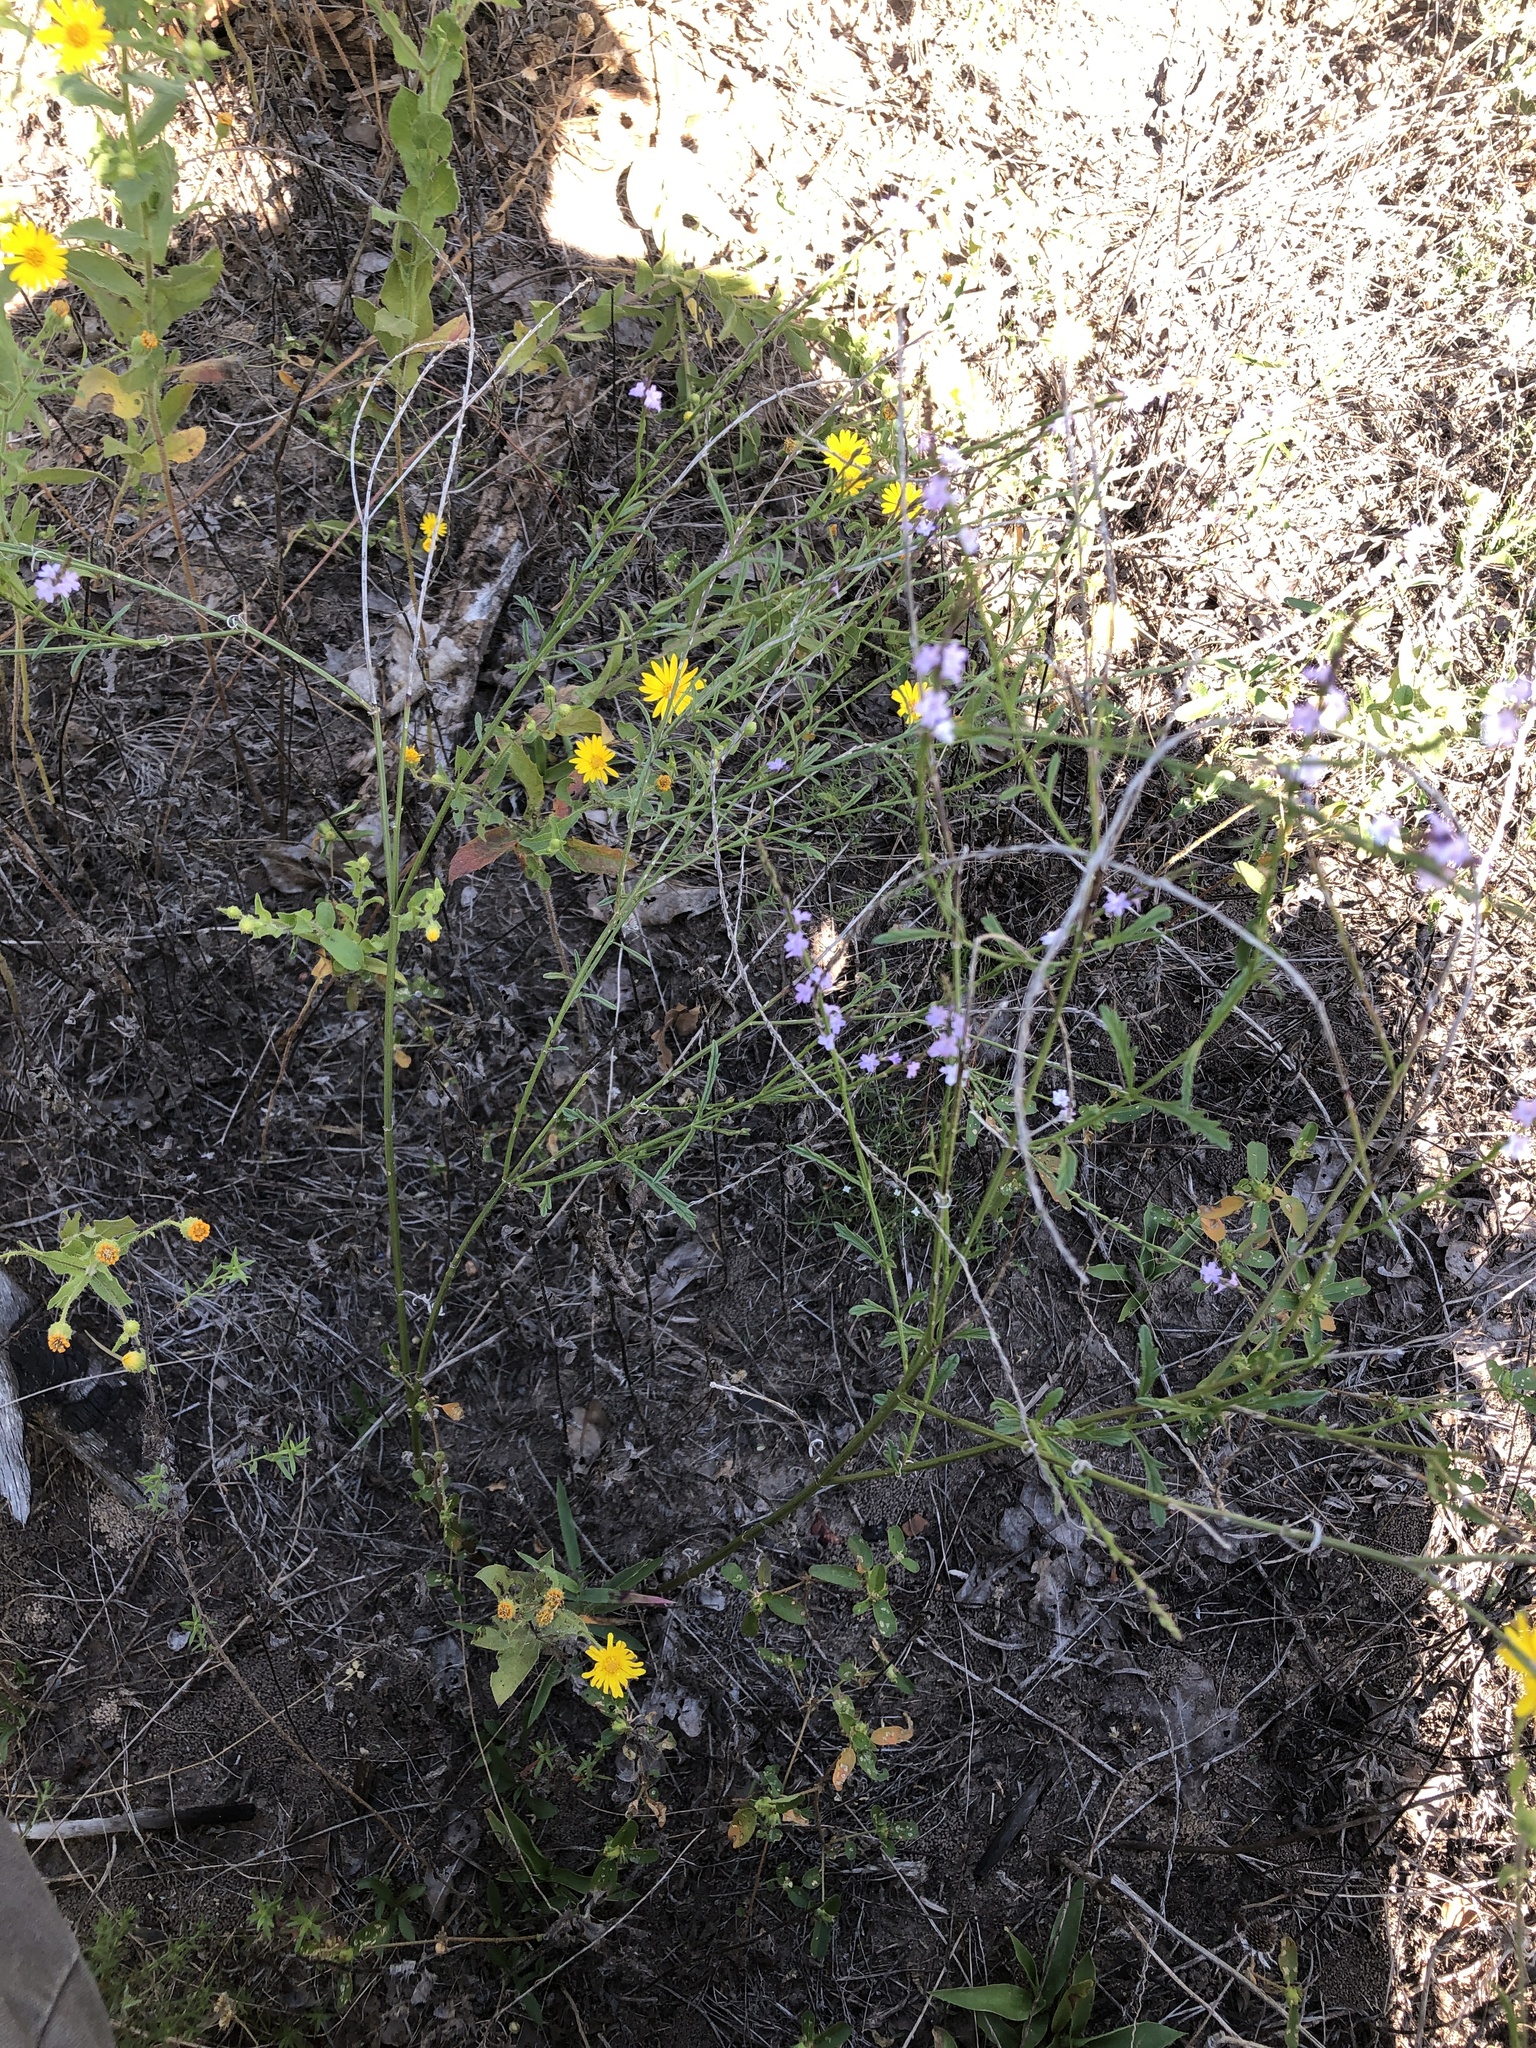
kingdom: Plantae
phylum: Tracheophyta
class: Magnoliopsida
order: Lamiales
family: Verbenaceae
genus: Verbena
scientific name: Verbena halei
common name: Texas vervain
